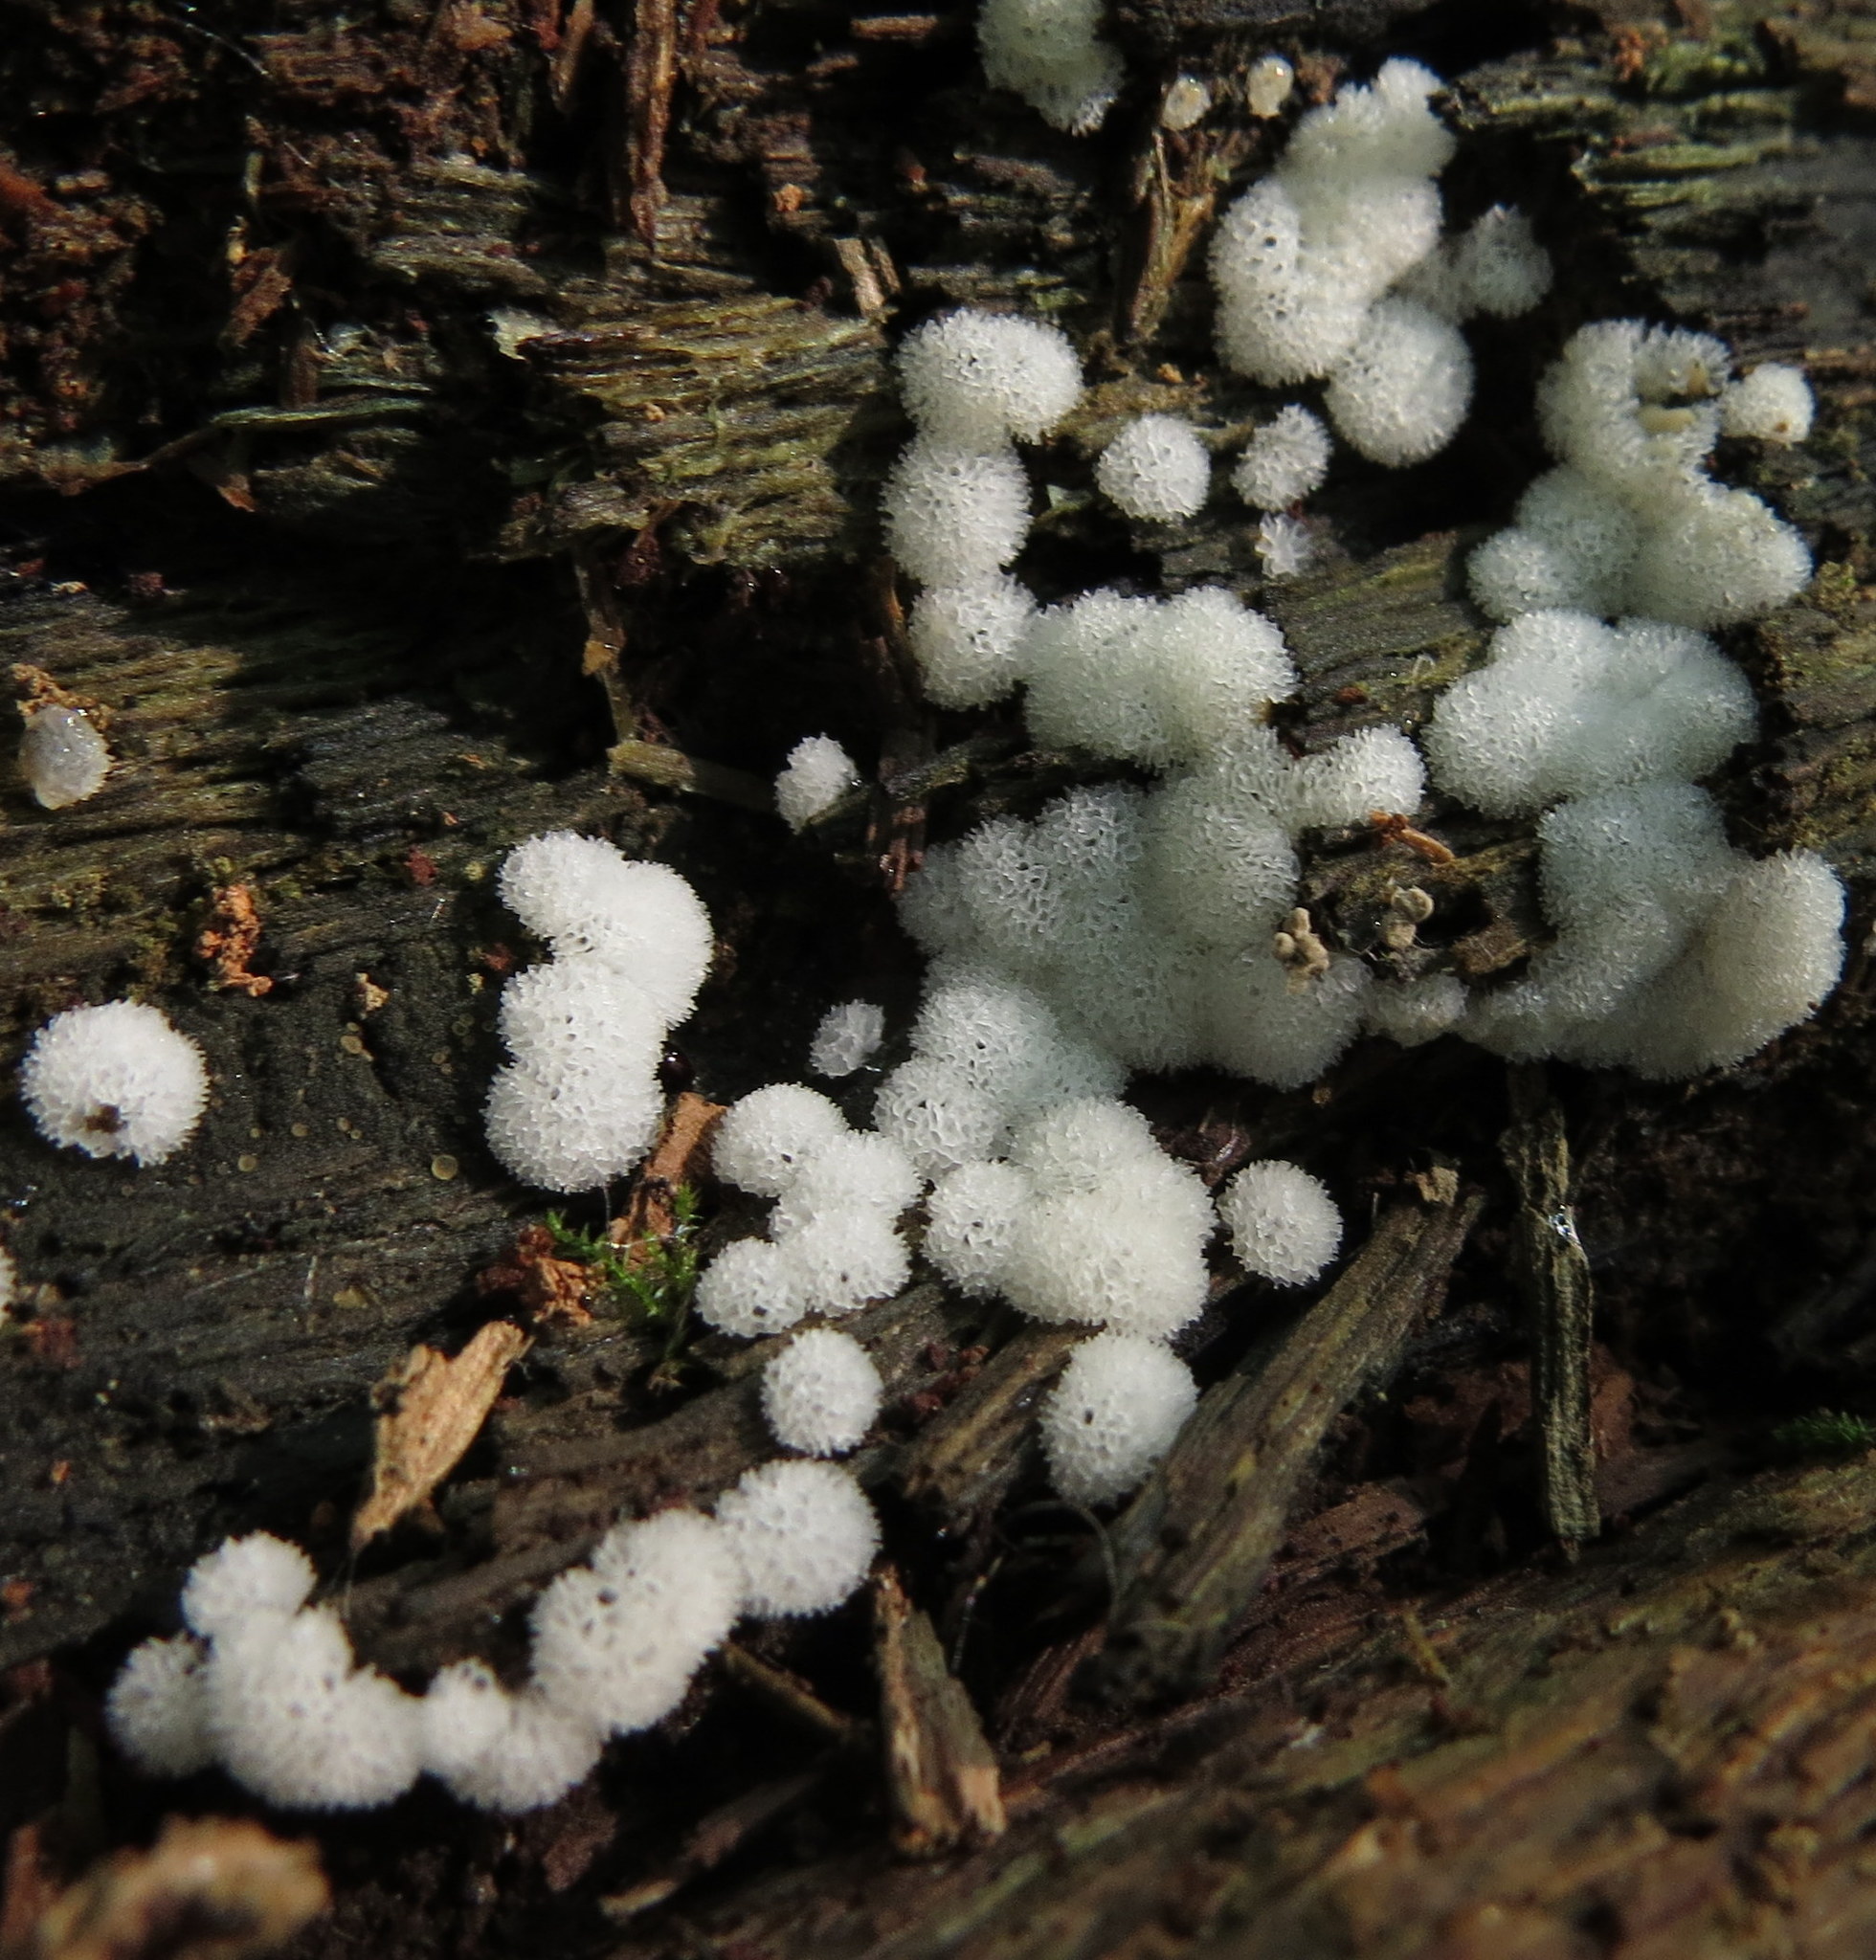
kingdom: Protozoa
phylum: Mycetozoa
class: Protosteliomycetes
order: Ceratiomyxales
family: Ceratiomyxaceae
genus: Ceratiomyxa
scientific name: Ceratiomyxa fruticulosa
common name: Honeycomb coral slime mold
